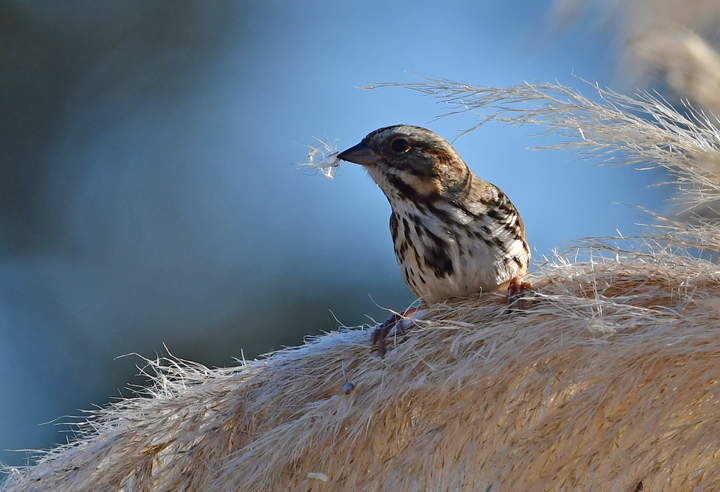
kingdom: Animalia
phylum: Chordata
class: Aves
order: Passeriformes
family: Passerellidae
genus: Melospiza
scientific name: Melospiza melodia
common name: Song sparrow
